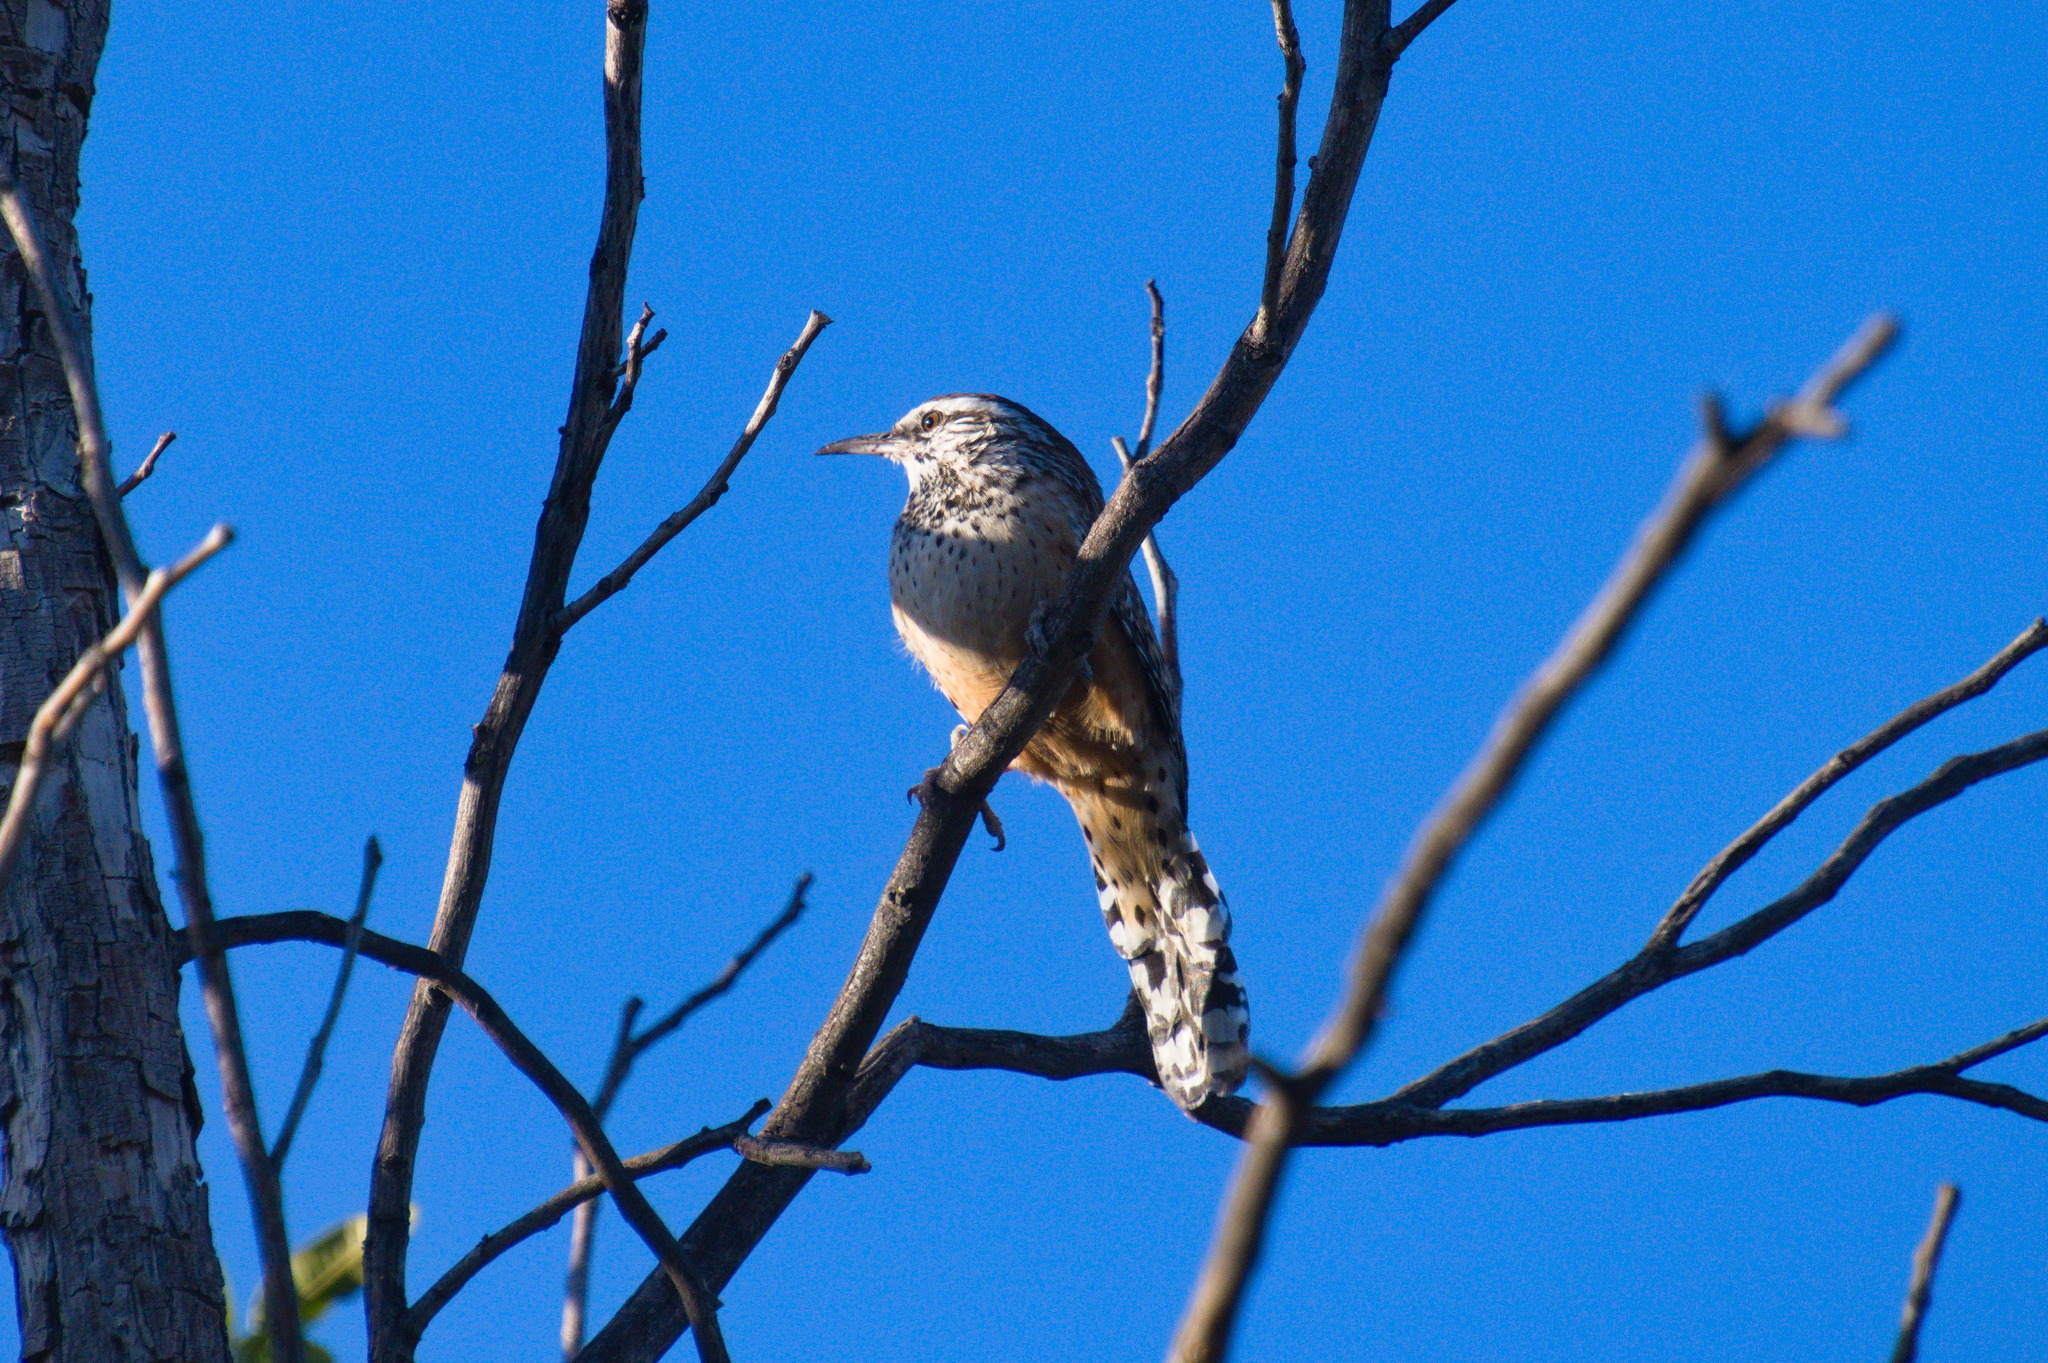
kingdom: Animalia
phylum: Chordata
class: Aves
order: Passeriformes
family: Troglodytidae
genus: Campylorhynchus
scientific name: Campylorhynchus brunneicapillus
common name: Cactus wren
